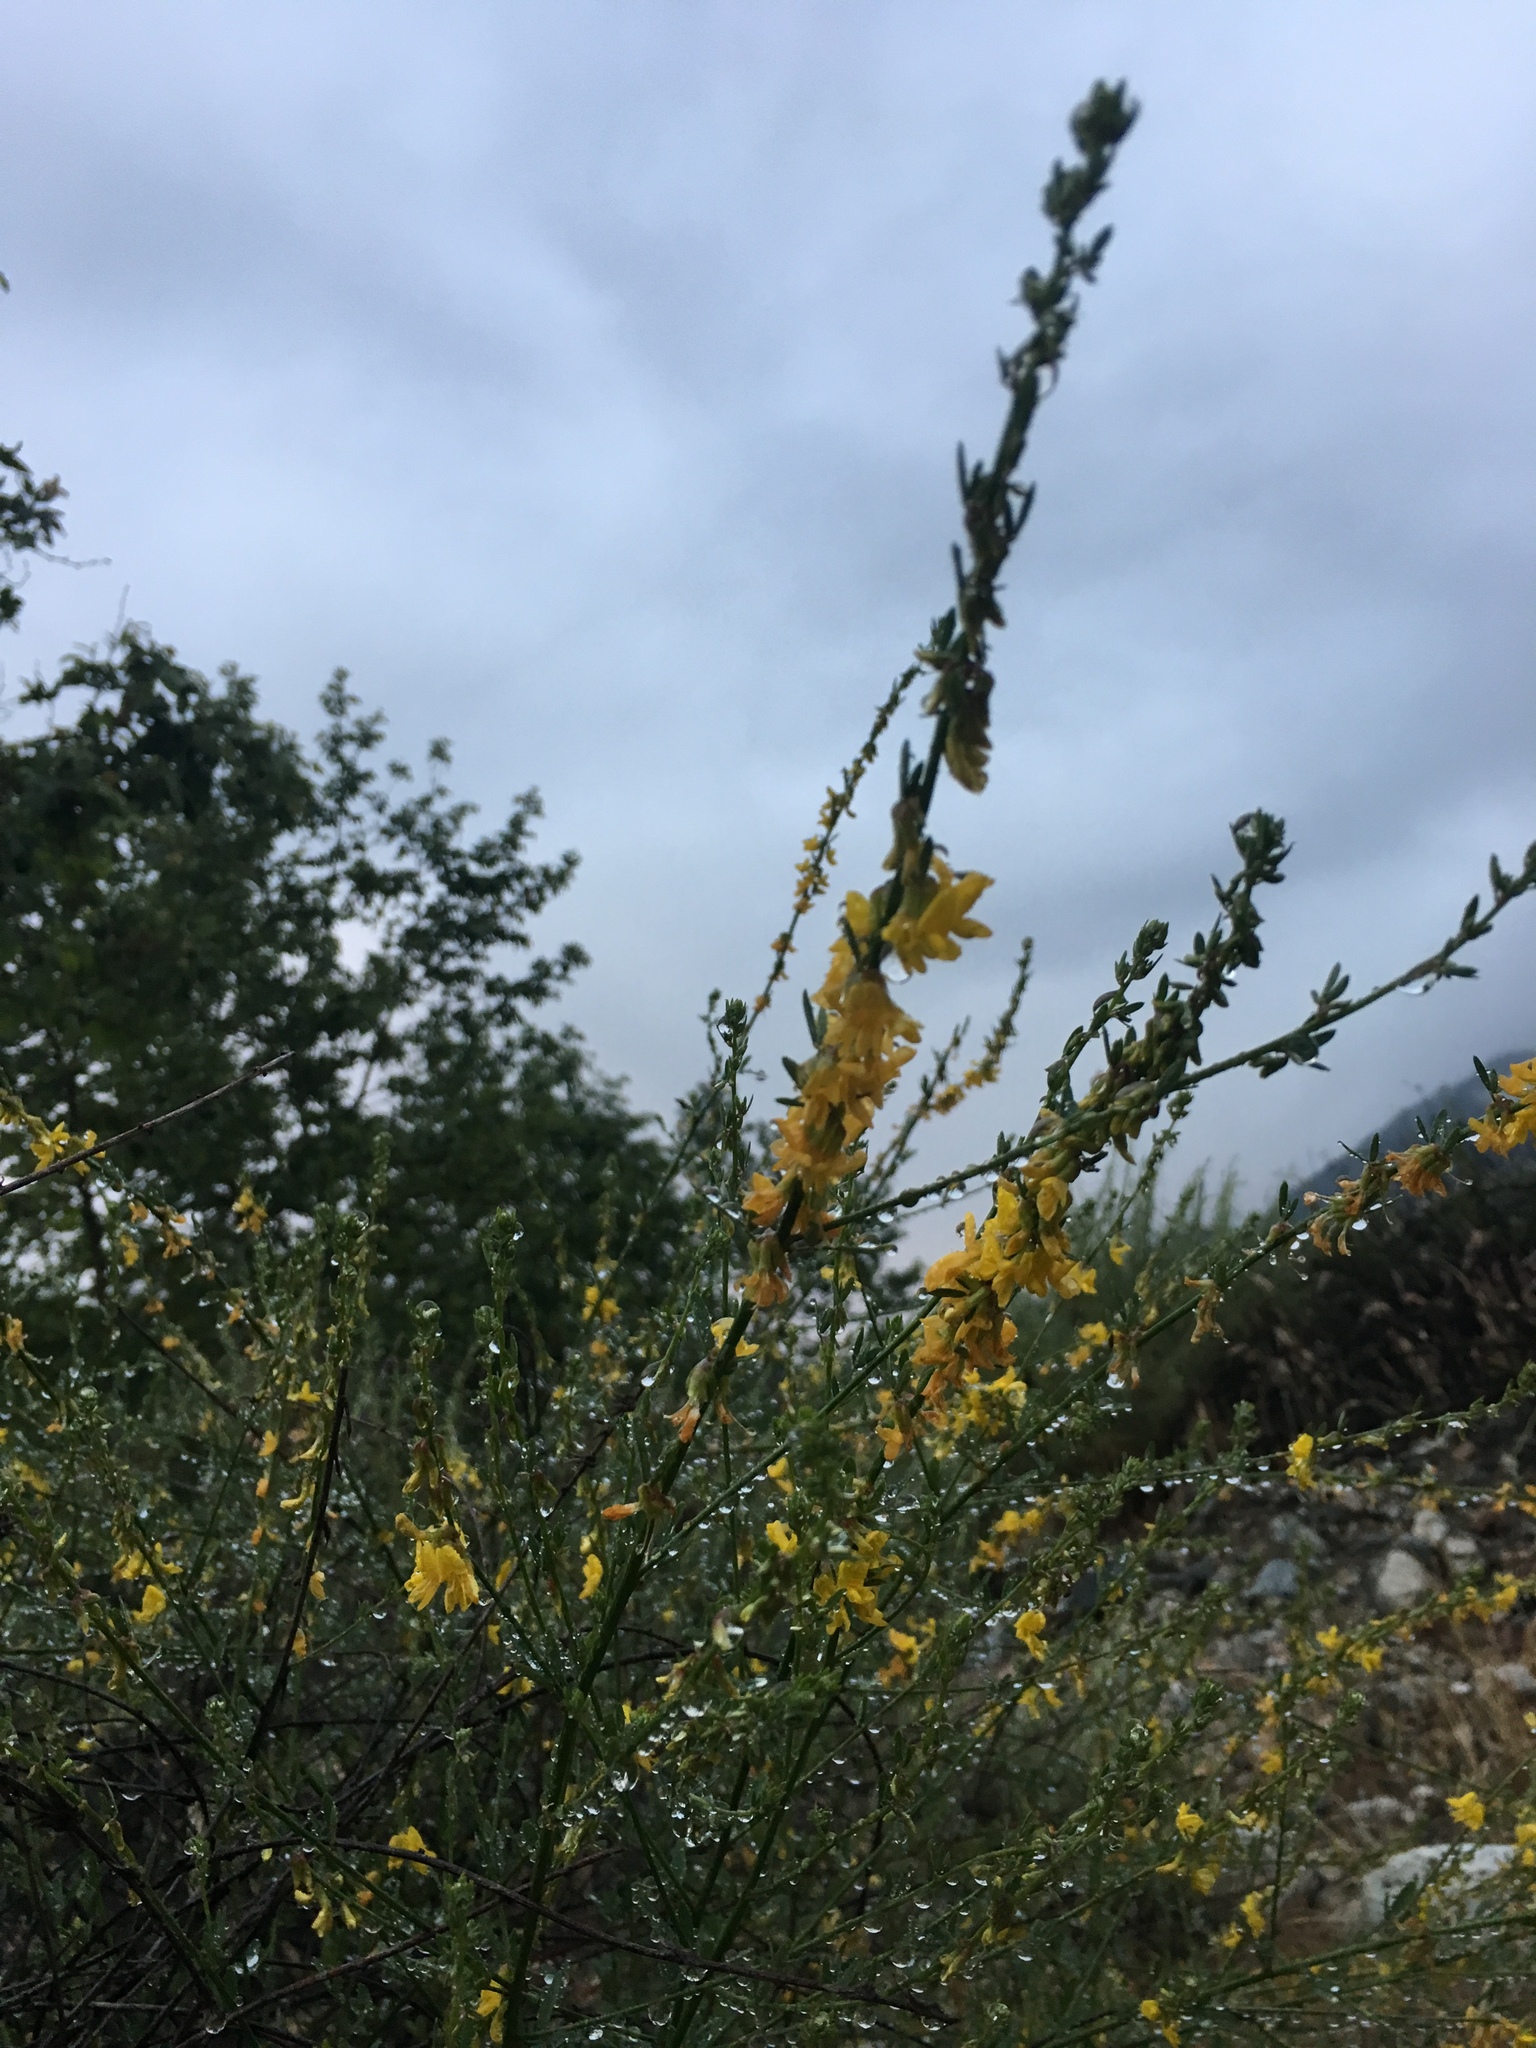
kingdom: Plantae
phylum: Tracheophyta
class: Magnoliopsida
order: Fabales
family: Fabaceae
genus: Acmispon
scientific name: Acmispon glaber
